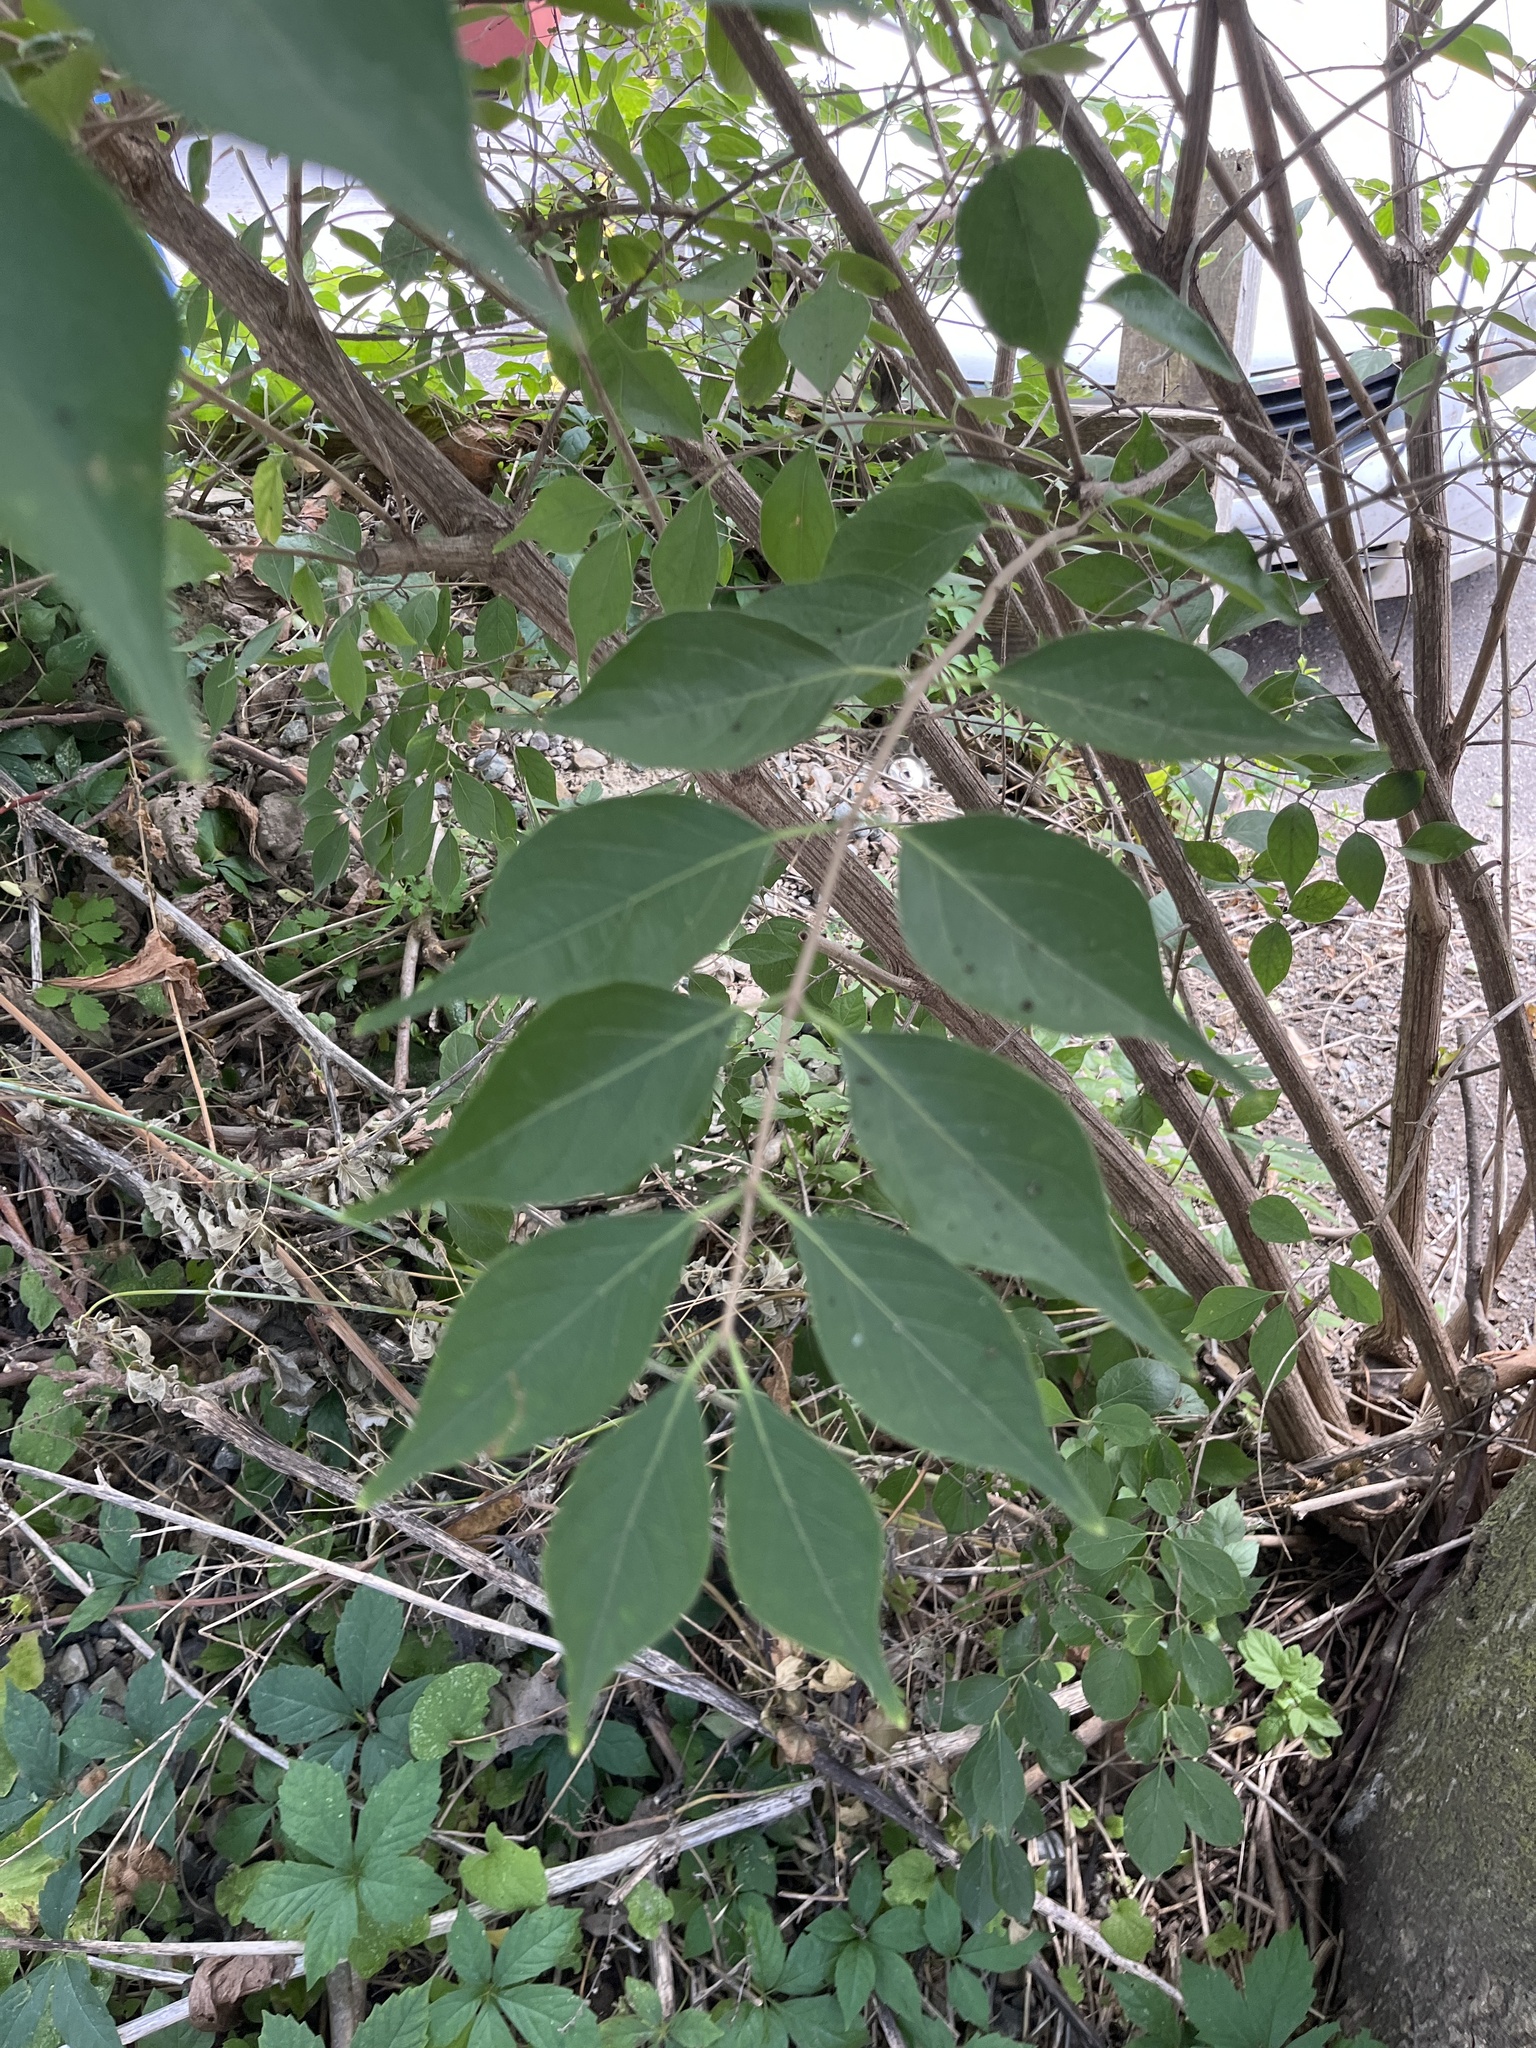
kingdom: Plantae
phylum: Tracheophyta
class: Magnoliopsida
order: Dipsacales
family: Caprifoliaceae
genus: Lonicera
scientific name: Lonicera maackii
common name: Amur honeysuckle
